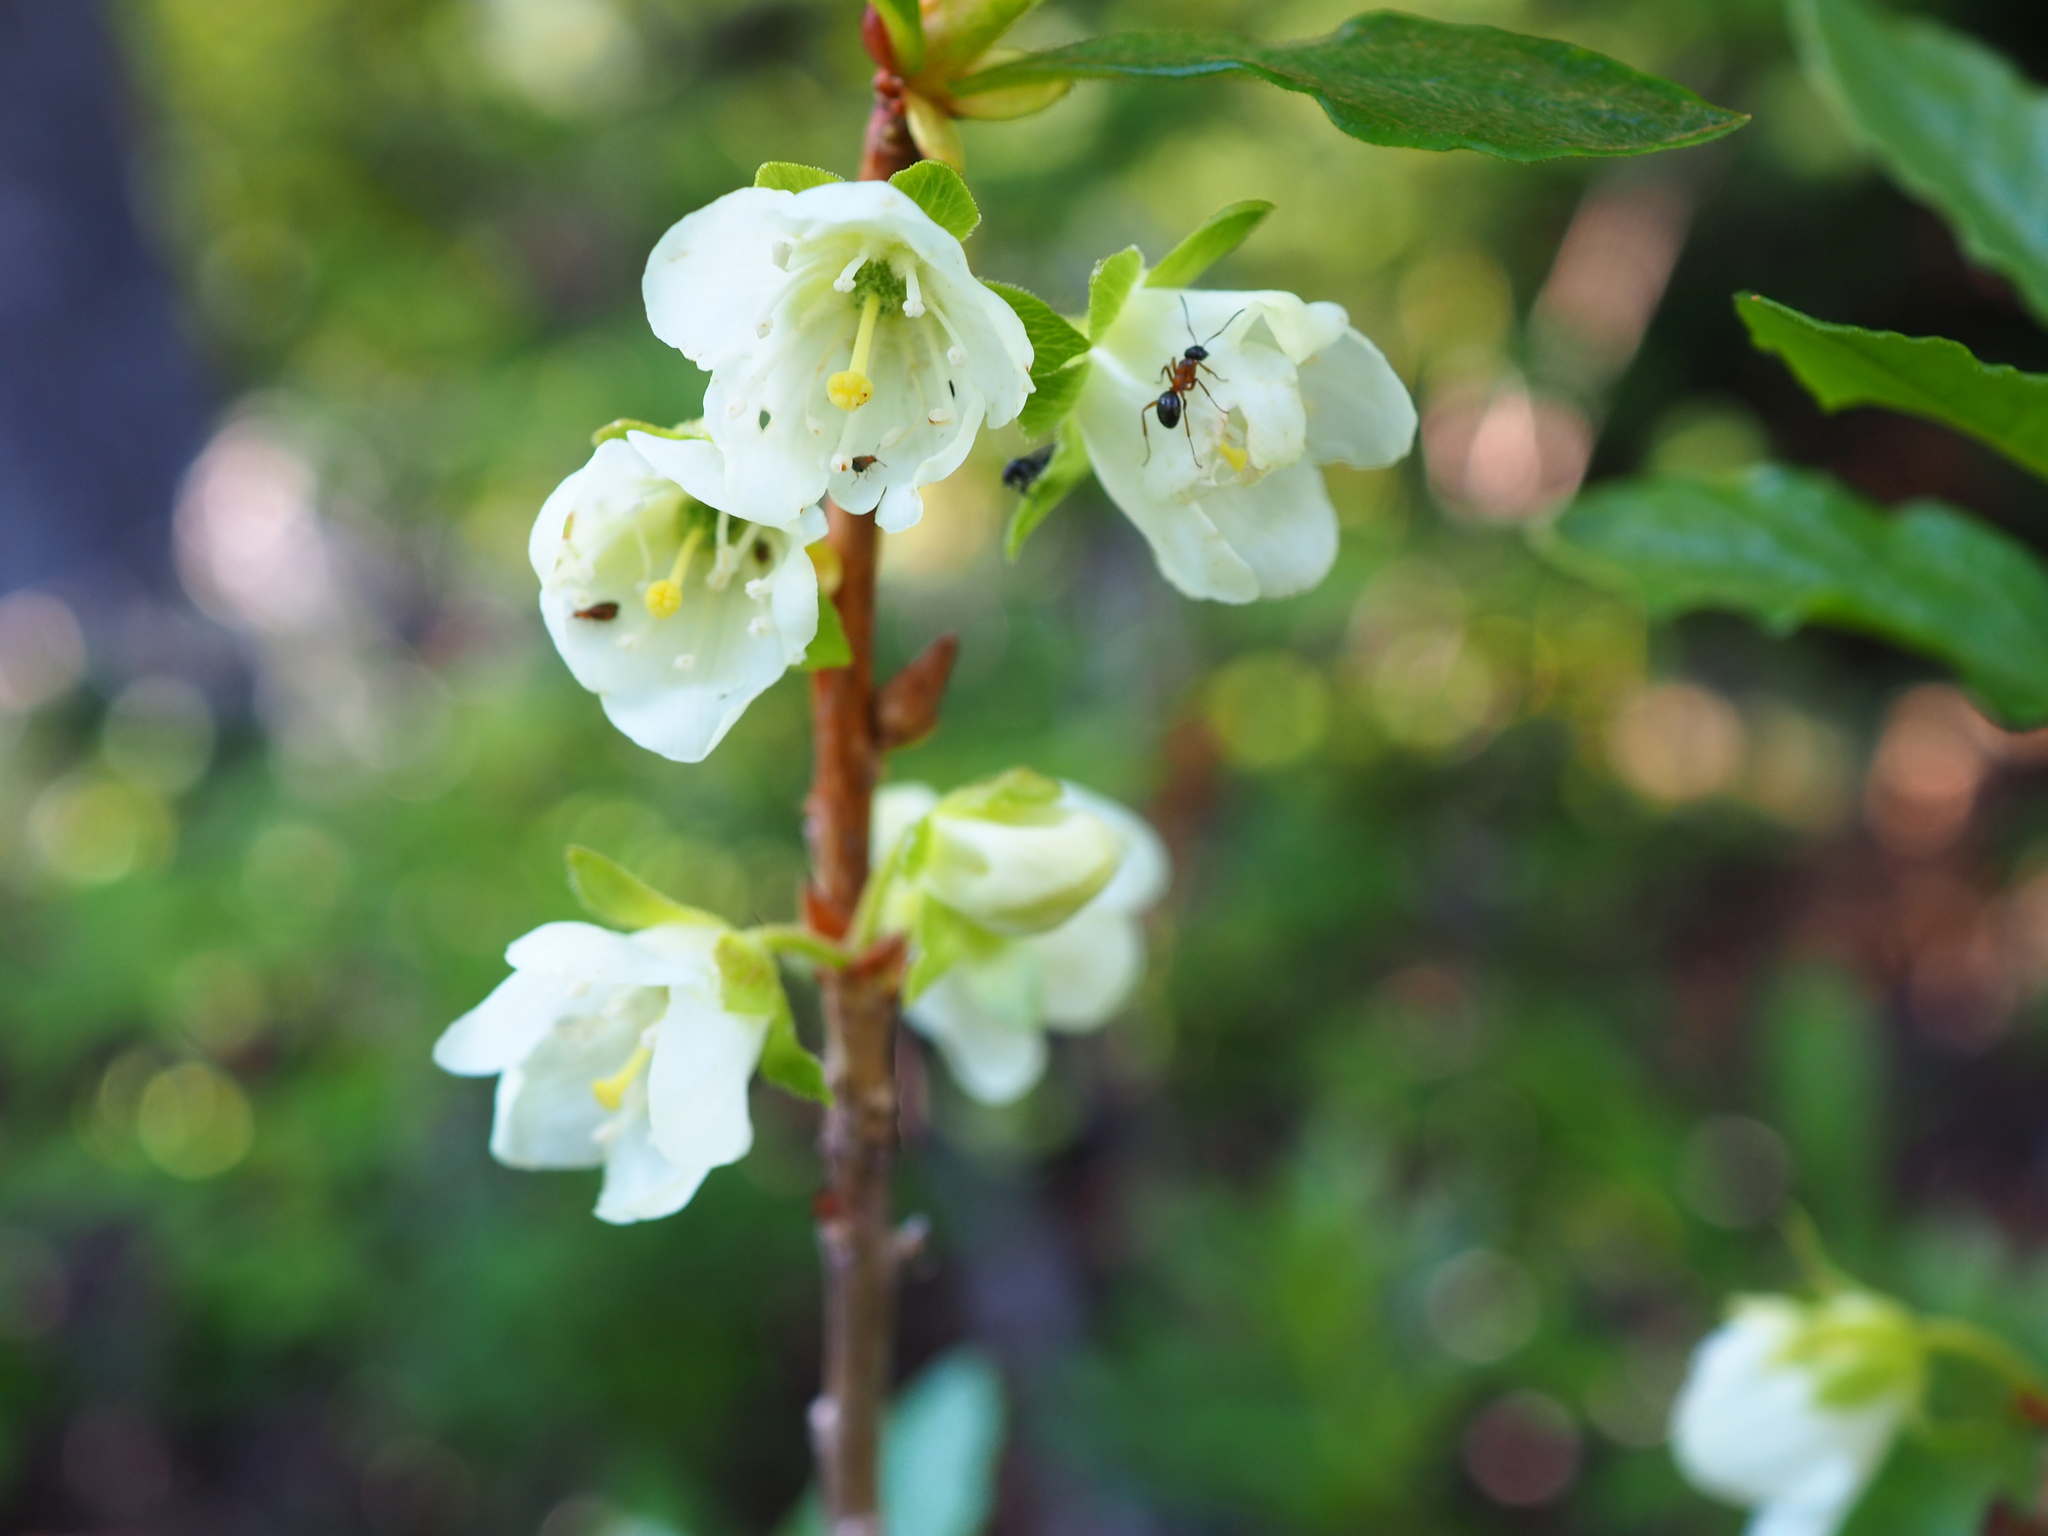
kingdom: Plantae
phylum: Tracheophyta
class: Magnoliopsida
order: Ericales
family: Ericaceae
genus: Rhododendron
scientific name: Rhododendron albiflorum
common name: White rhododendron
